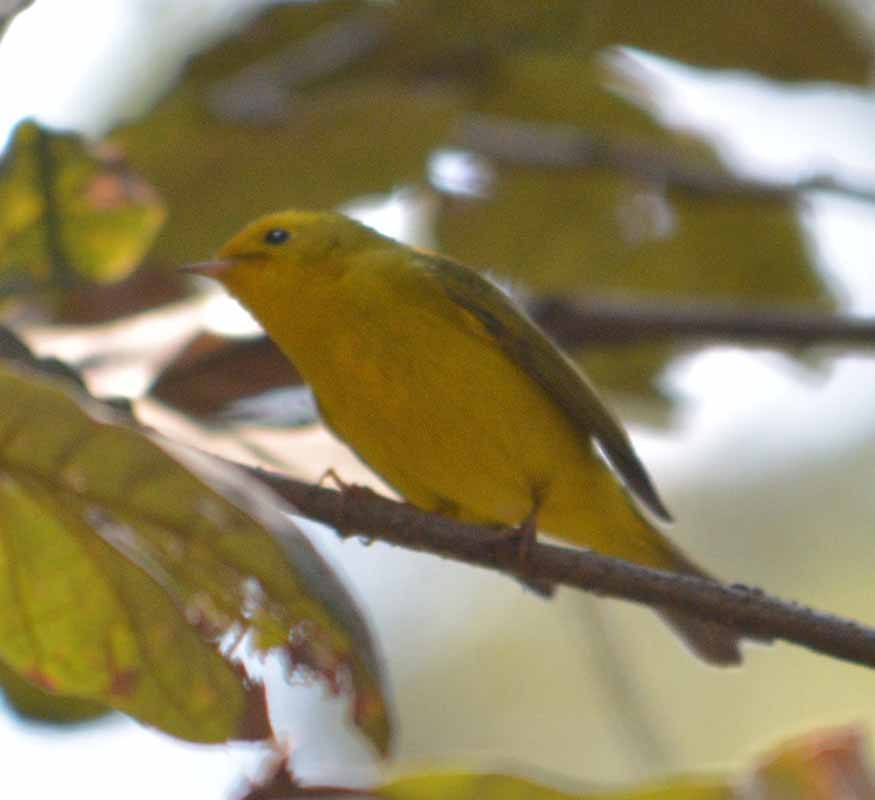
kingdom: Animalia
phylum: Chordata
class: Aves
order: Passeriformes
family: Parulidae
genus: Cardellina
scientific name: Cardellina pusilla
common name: Wilson's warbler
